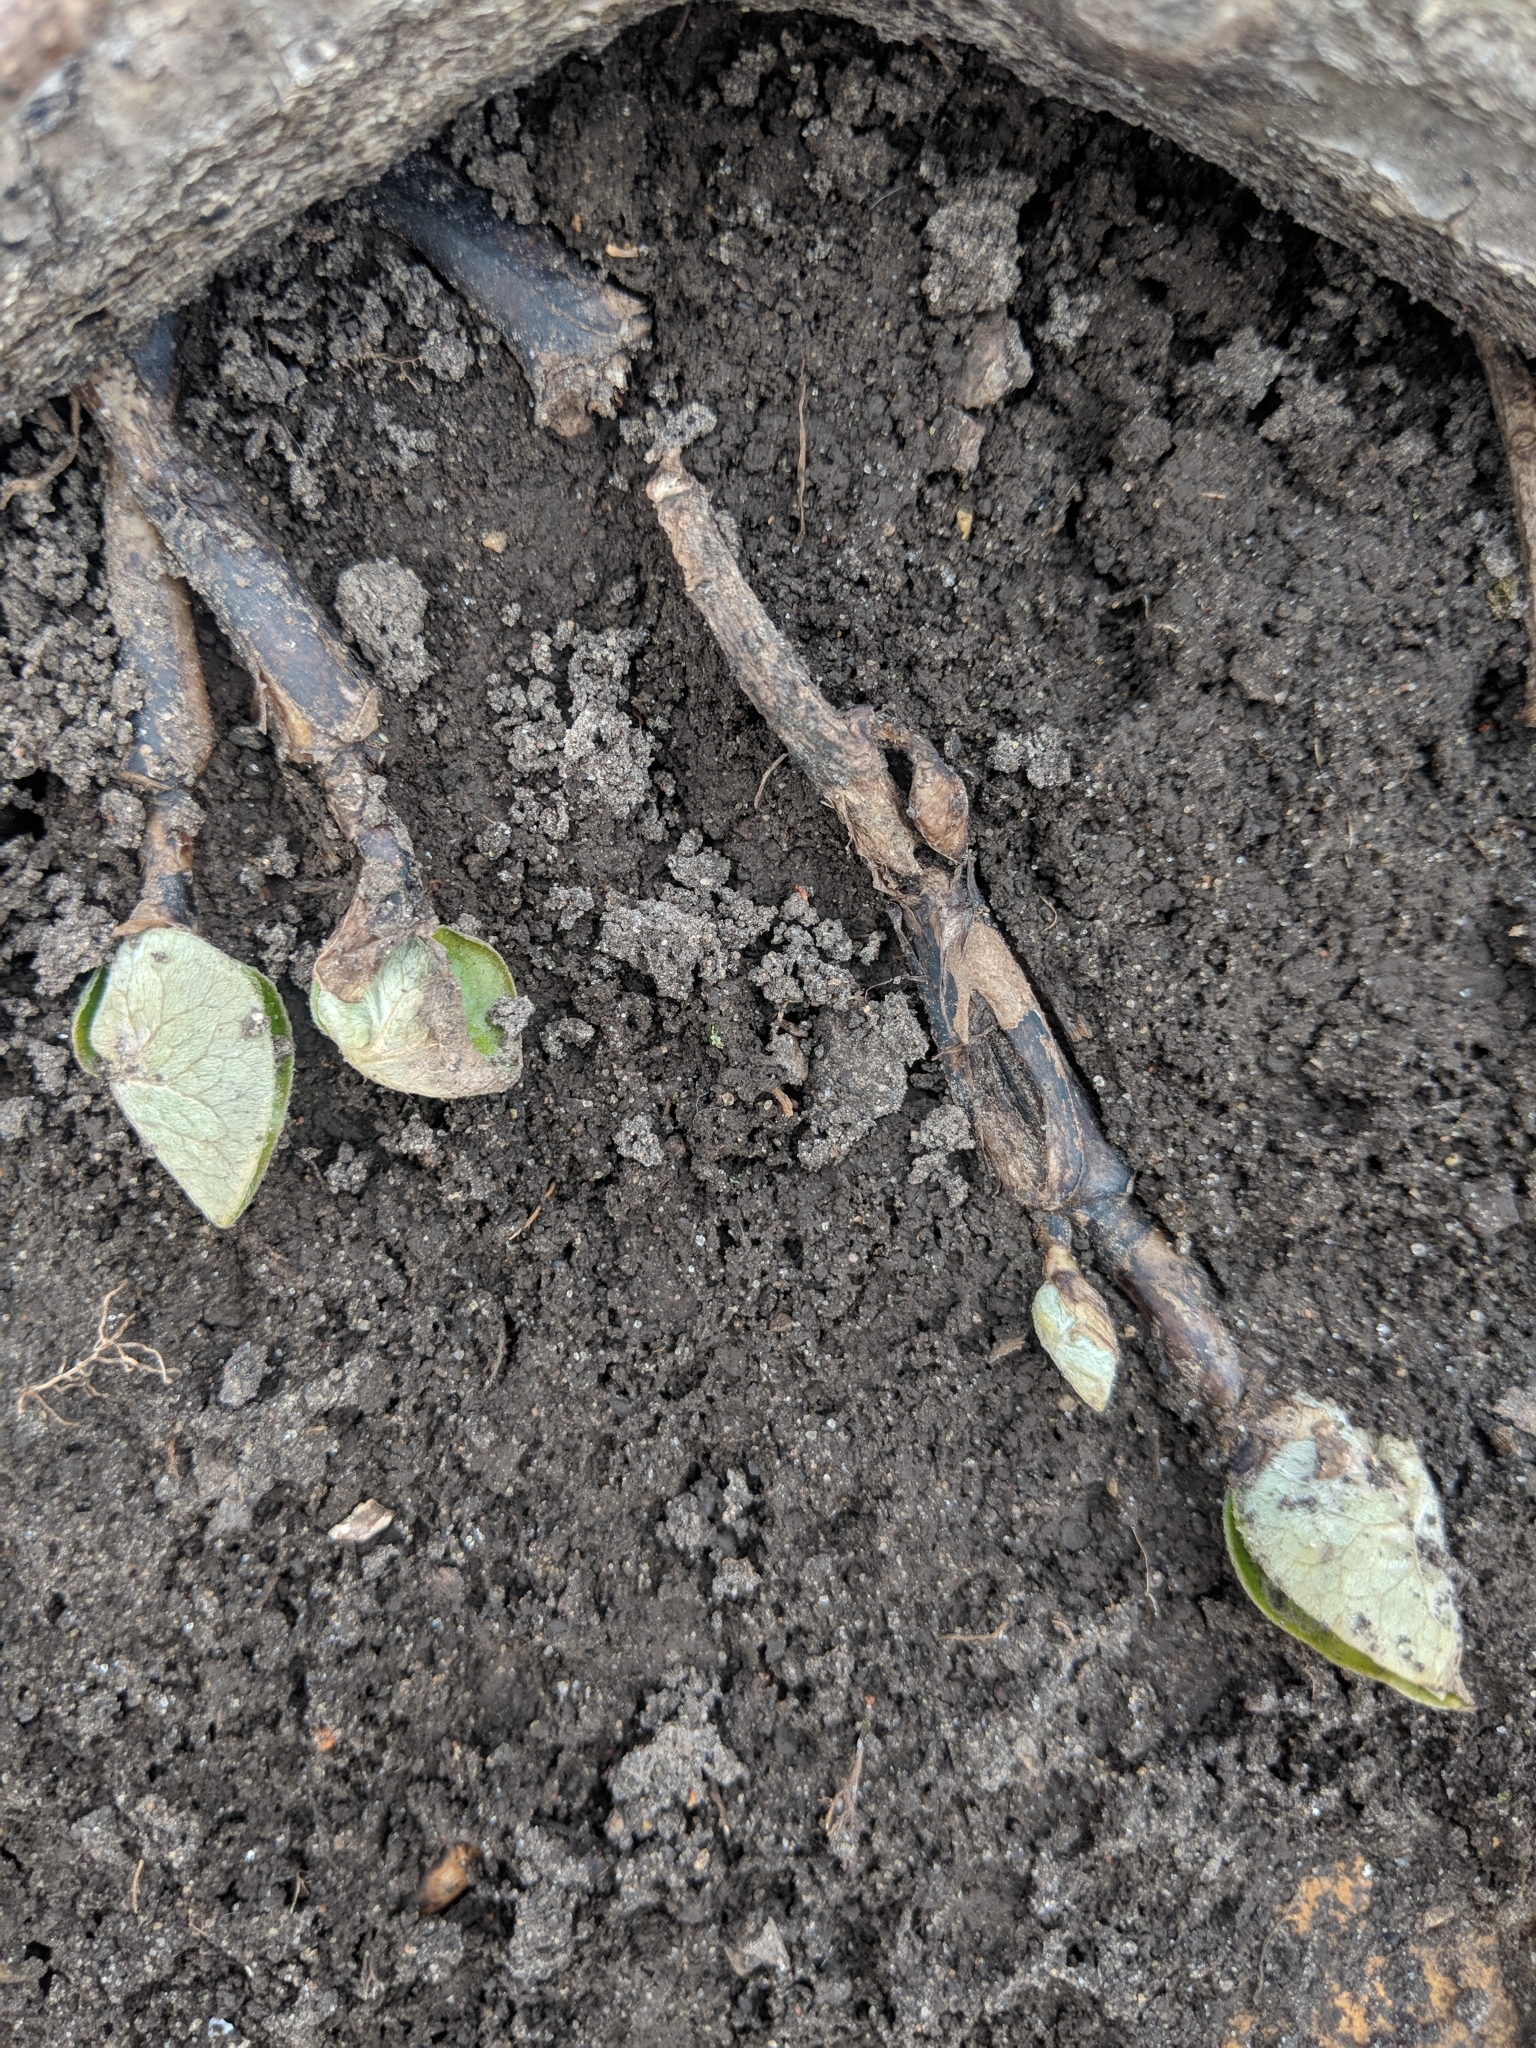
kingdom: Plantae
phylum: Tracheophyta
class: Magnoliopsida
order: Piperales
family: Aristolochiaceae
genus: Asarum
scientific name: Asarum canadense
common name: Wild ginger
